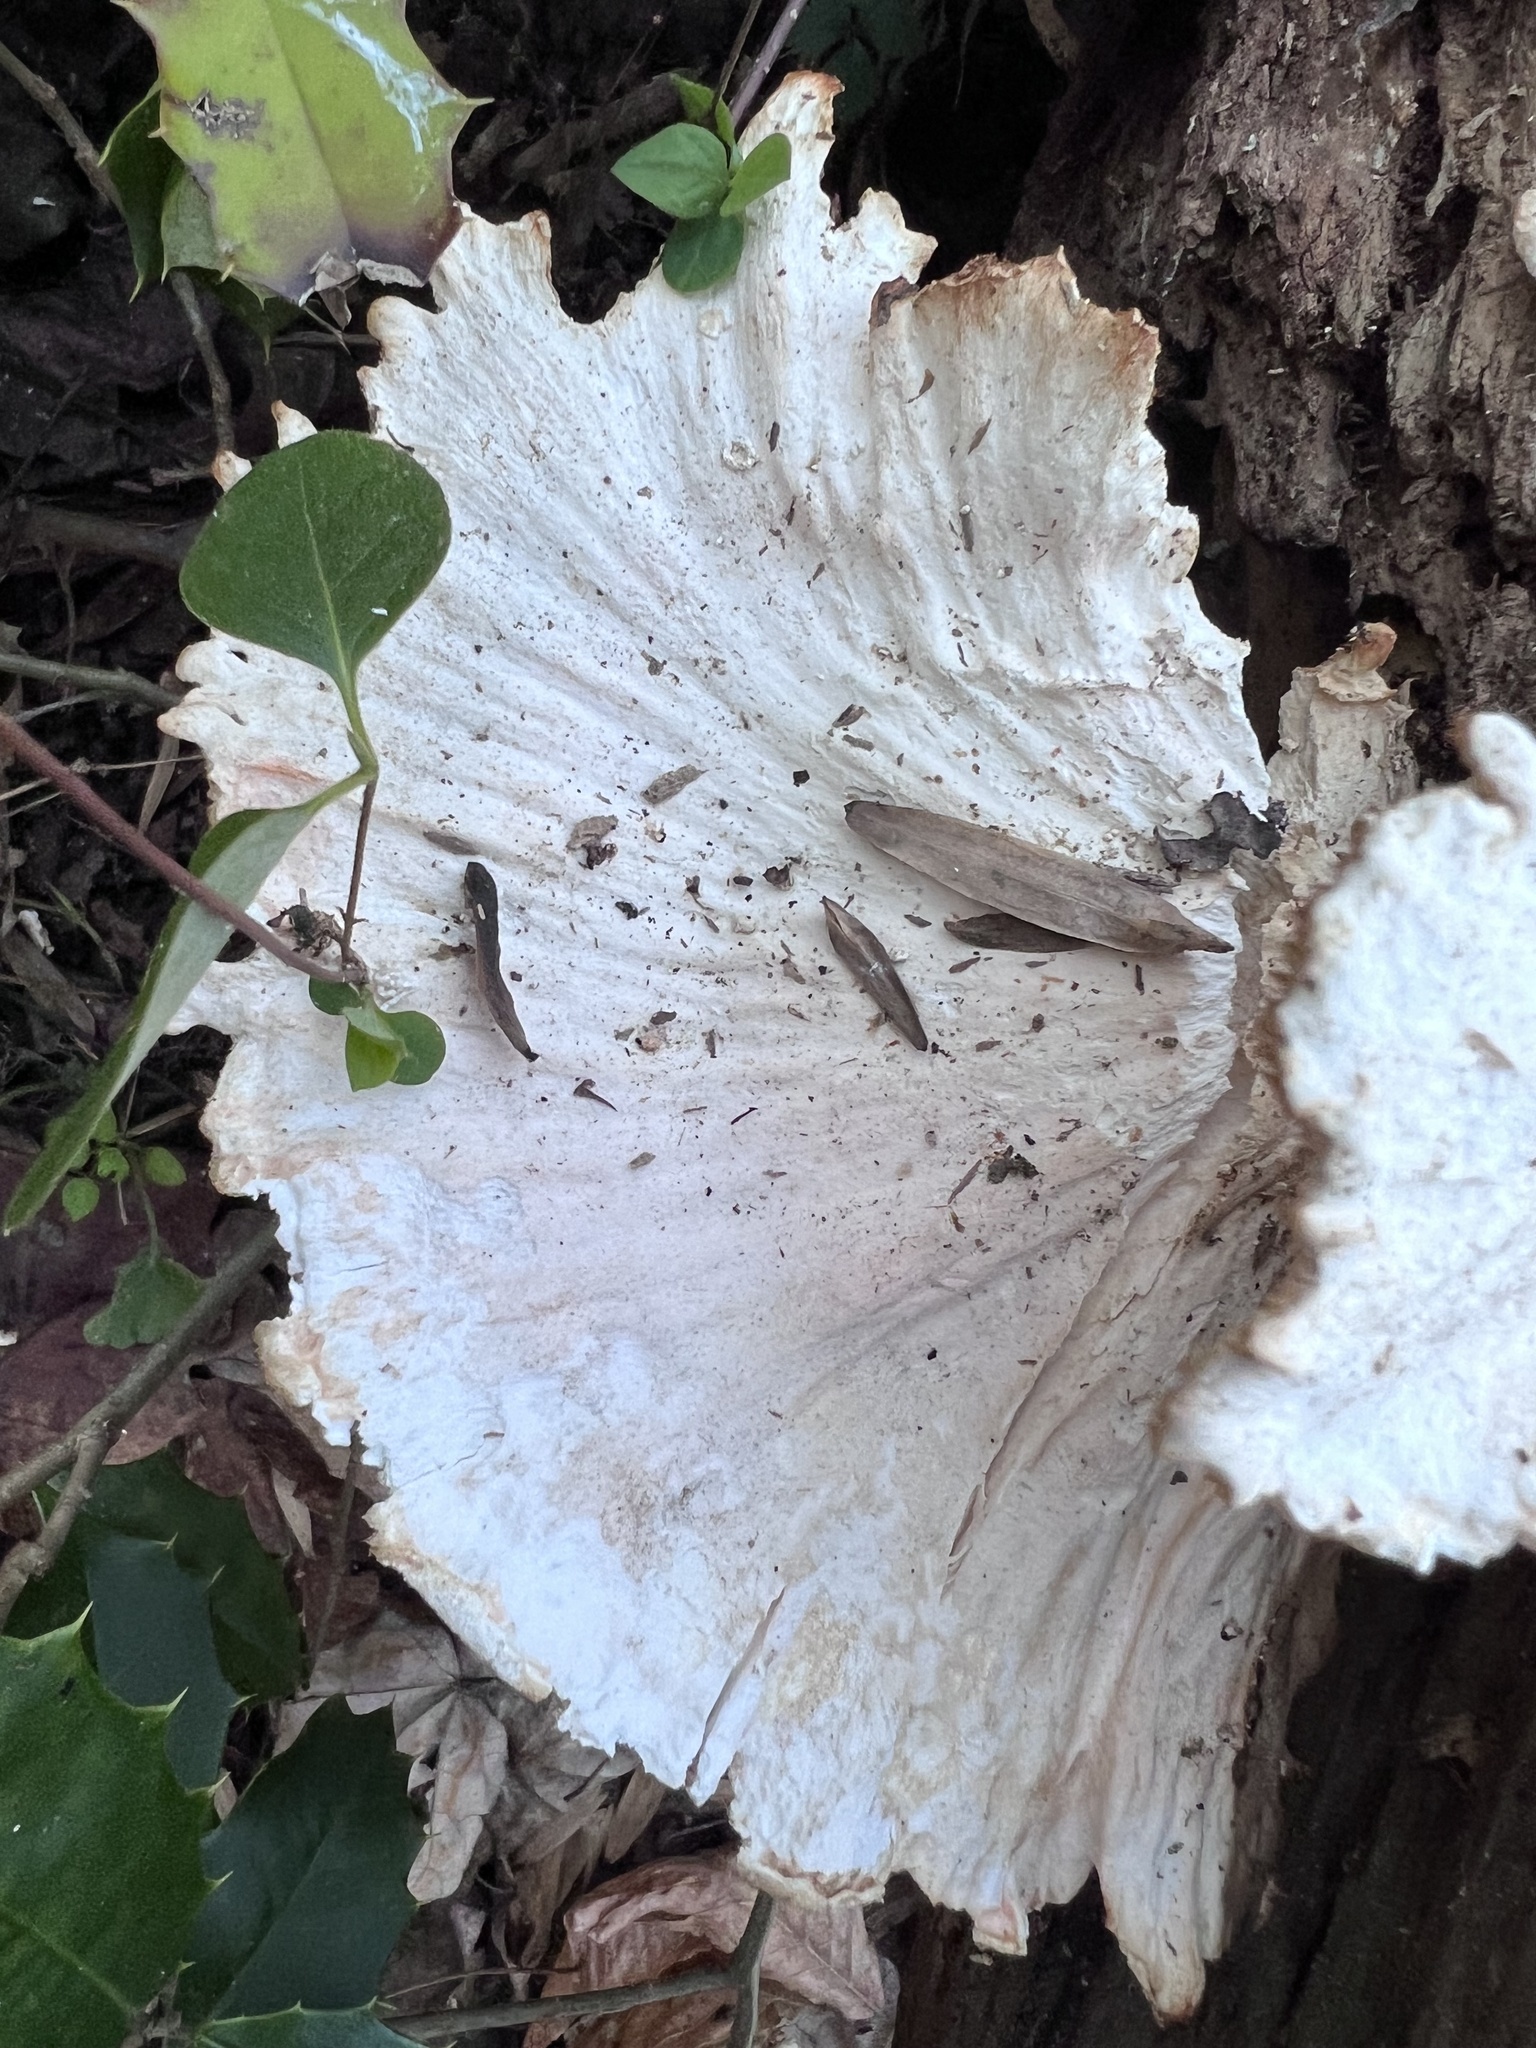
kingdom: Fungi
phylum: Basidiomycota
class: Agaricomycetes
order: Polyporales
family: Laetiporaceae
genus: Laetiporus
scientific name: Laetiporus sulphureus
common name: Chicken of the woods
